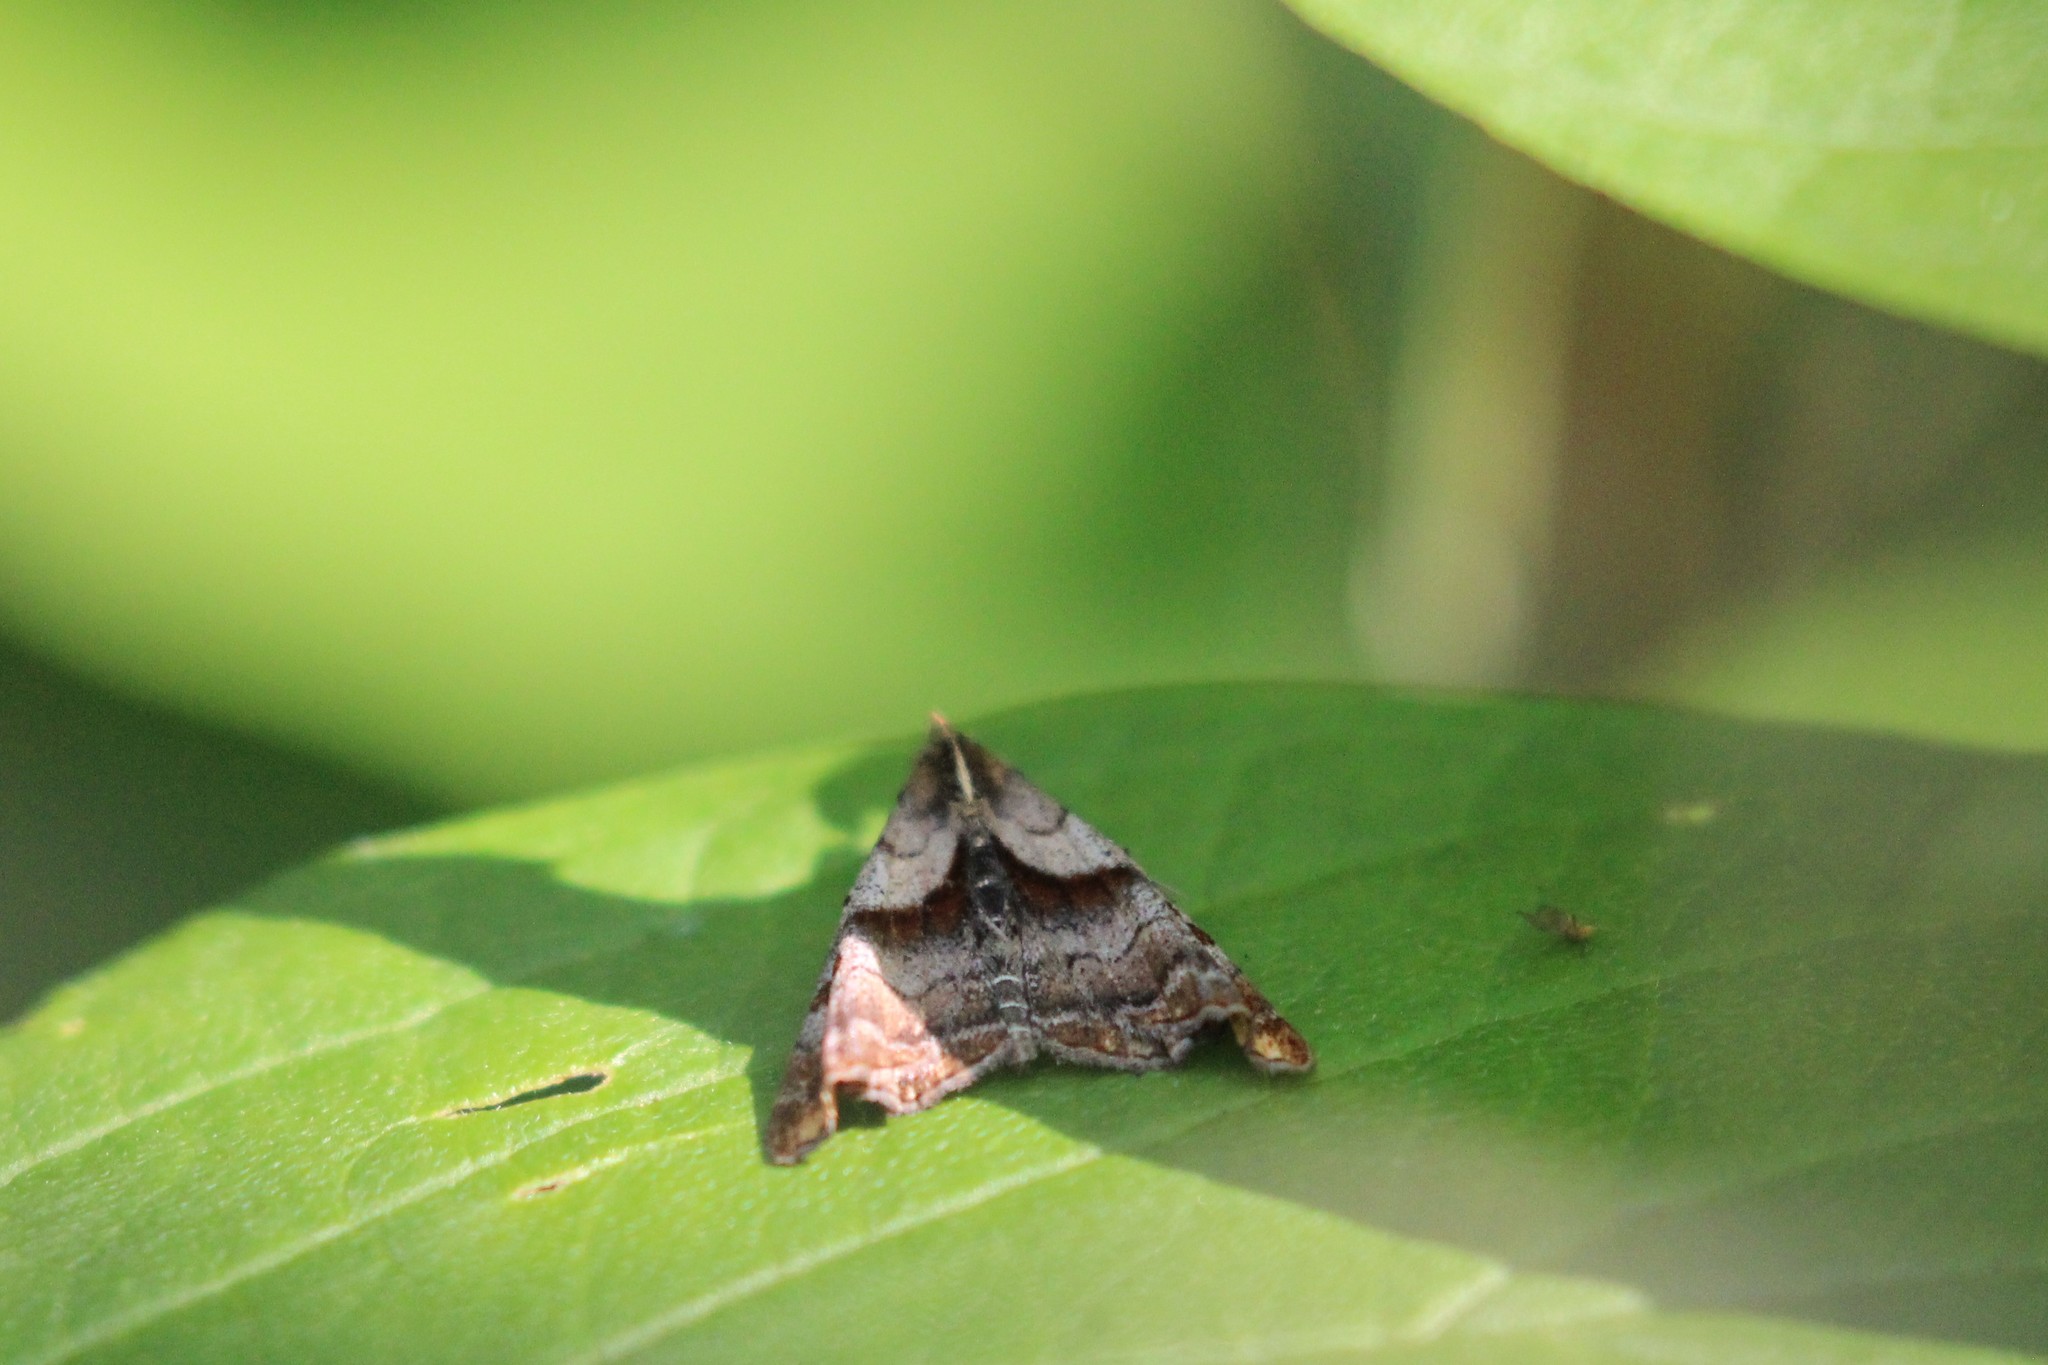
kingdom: Animalia
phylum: Arthropoda
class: Insecta
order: Lepidoptera
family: Erebidae
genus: Palthis
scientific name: Palthis angulalis
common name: Dark-spotted palthis moth
